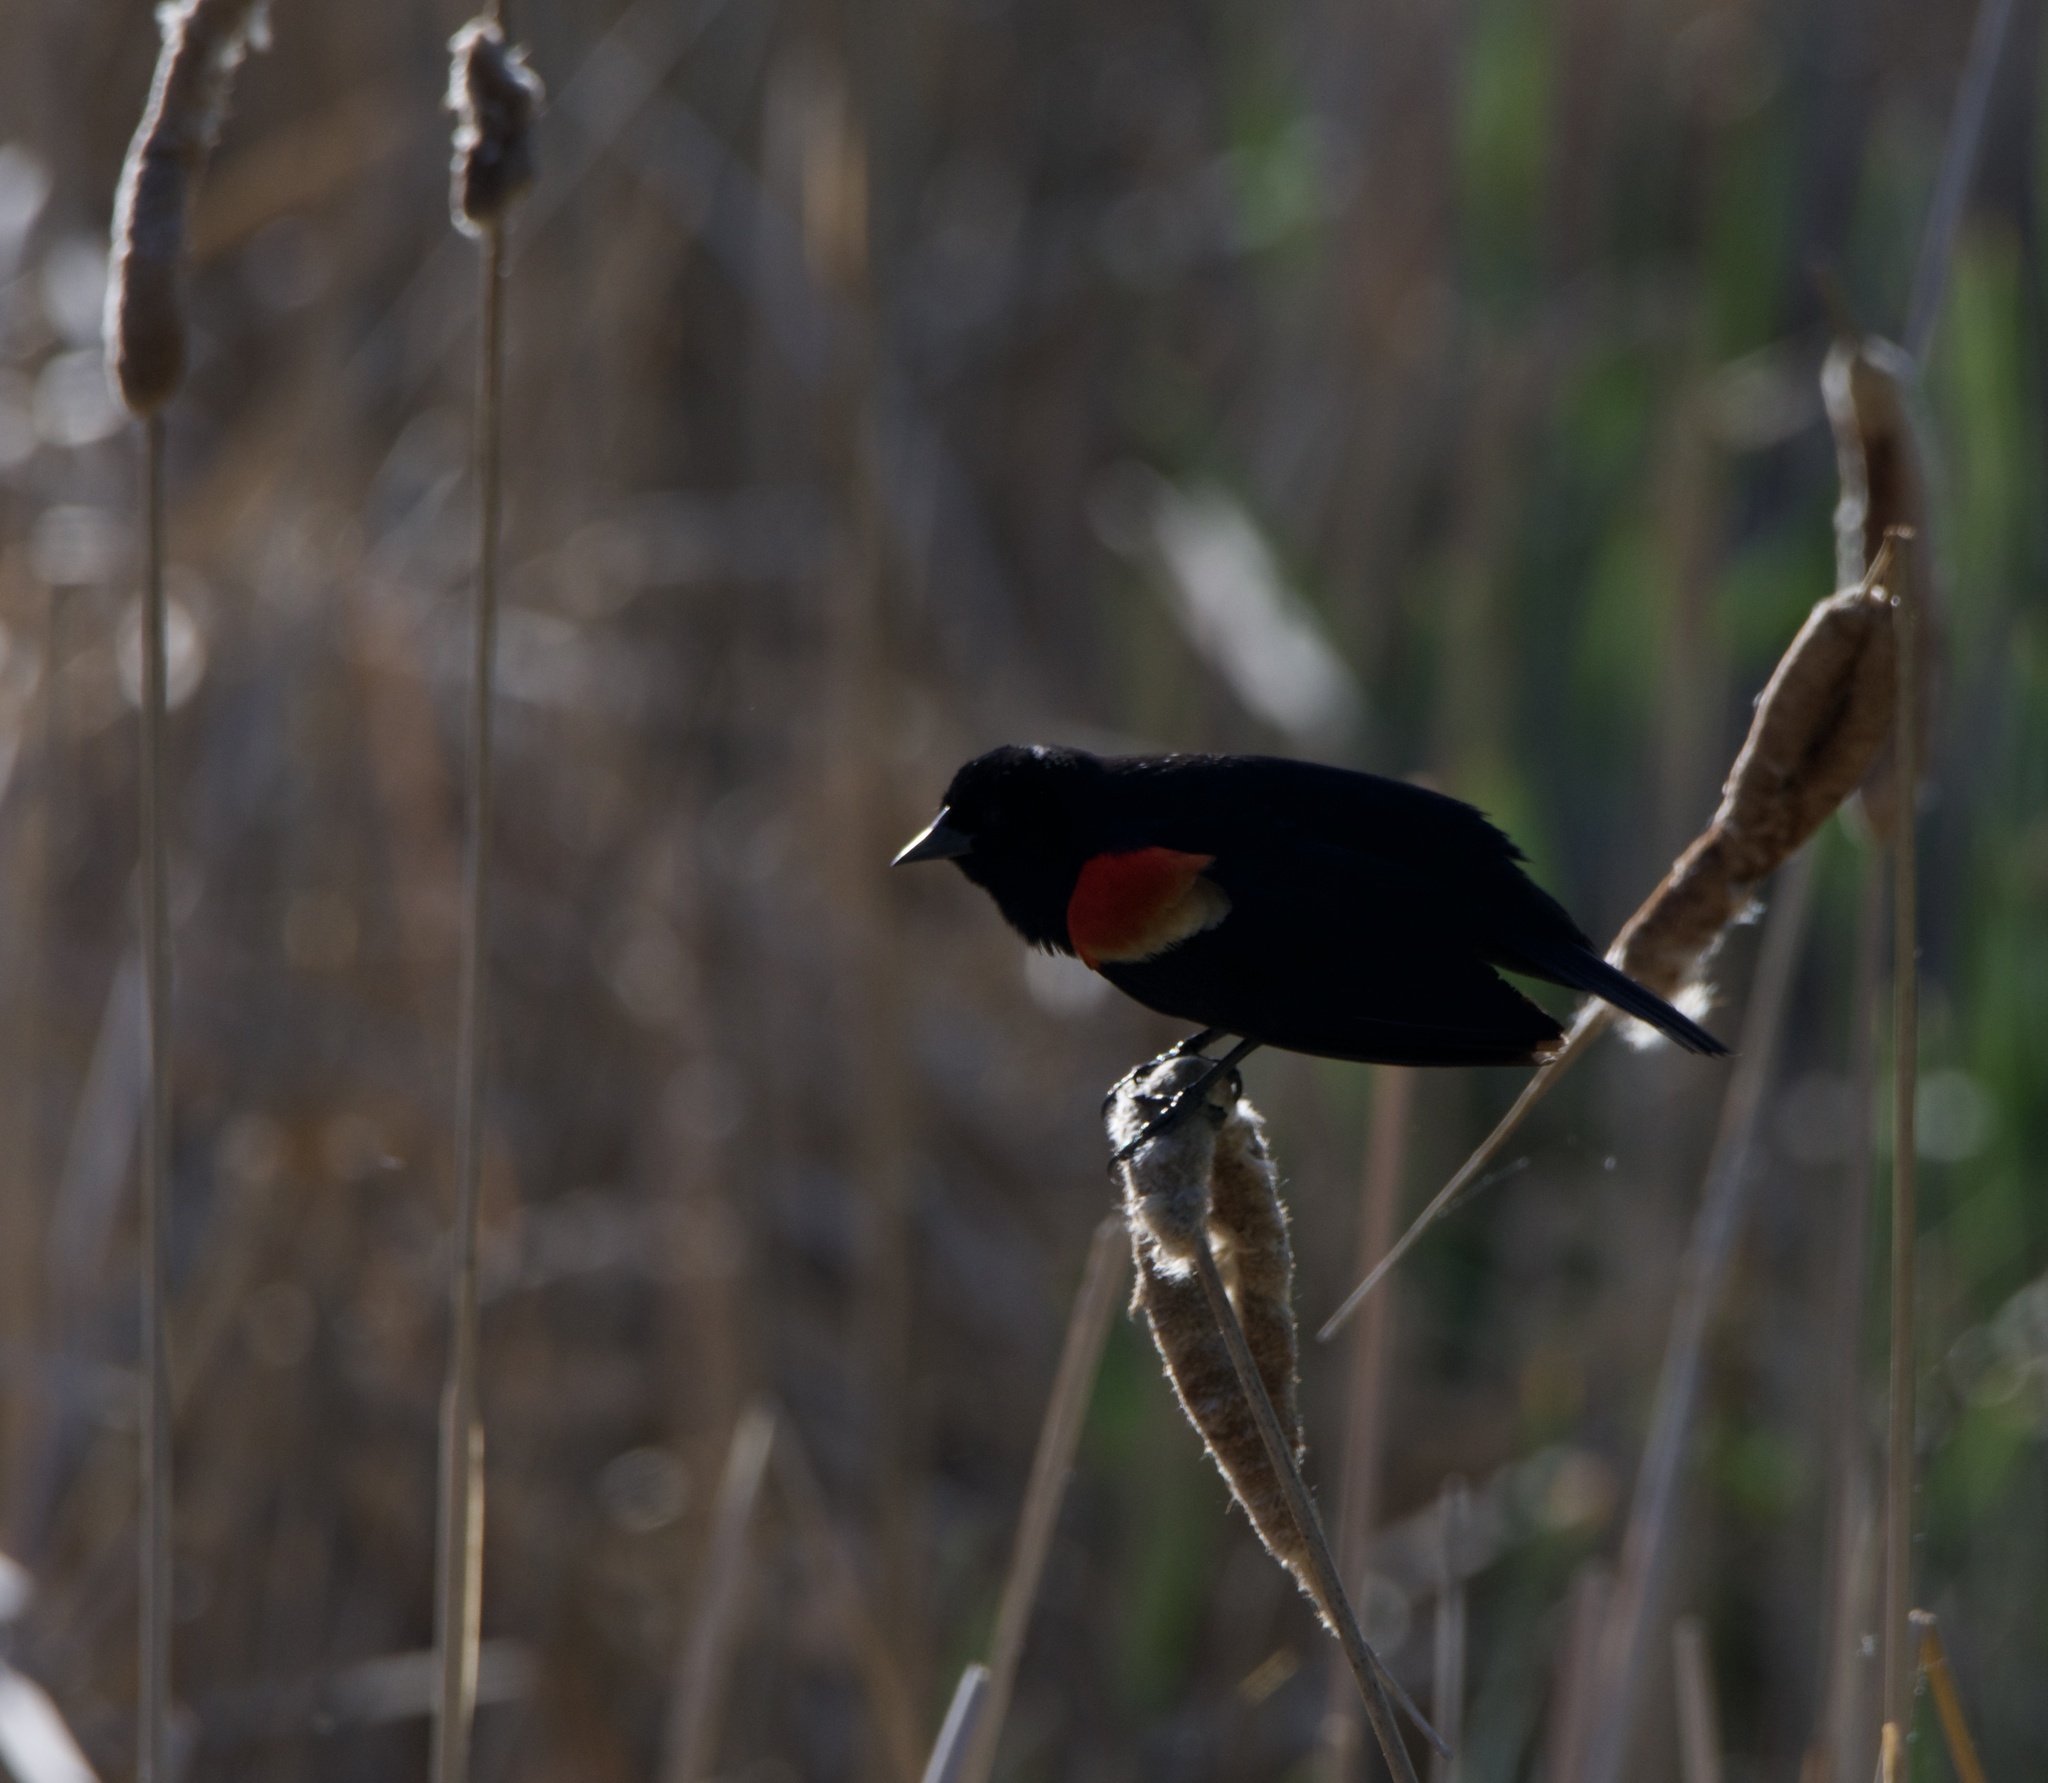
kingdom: Animalia
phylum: Chordata
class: Aves
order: Passeriformes
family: Icteridae
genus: Agelaius
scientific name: Agelaius phoeniceus
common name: Red-winged blackbird
